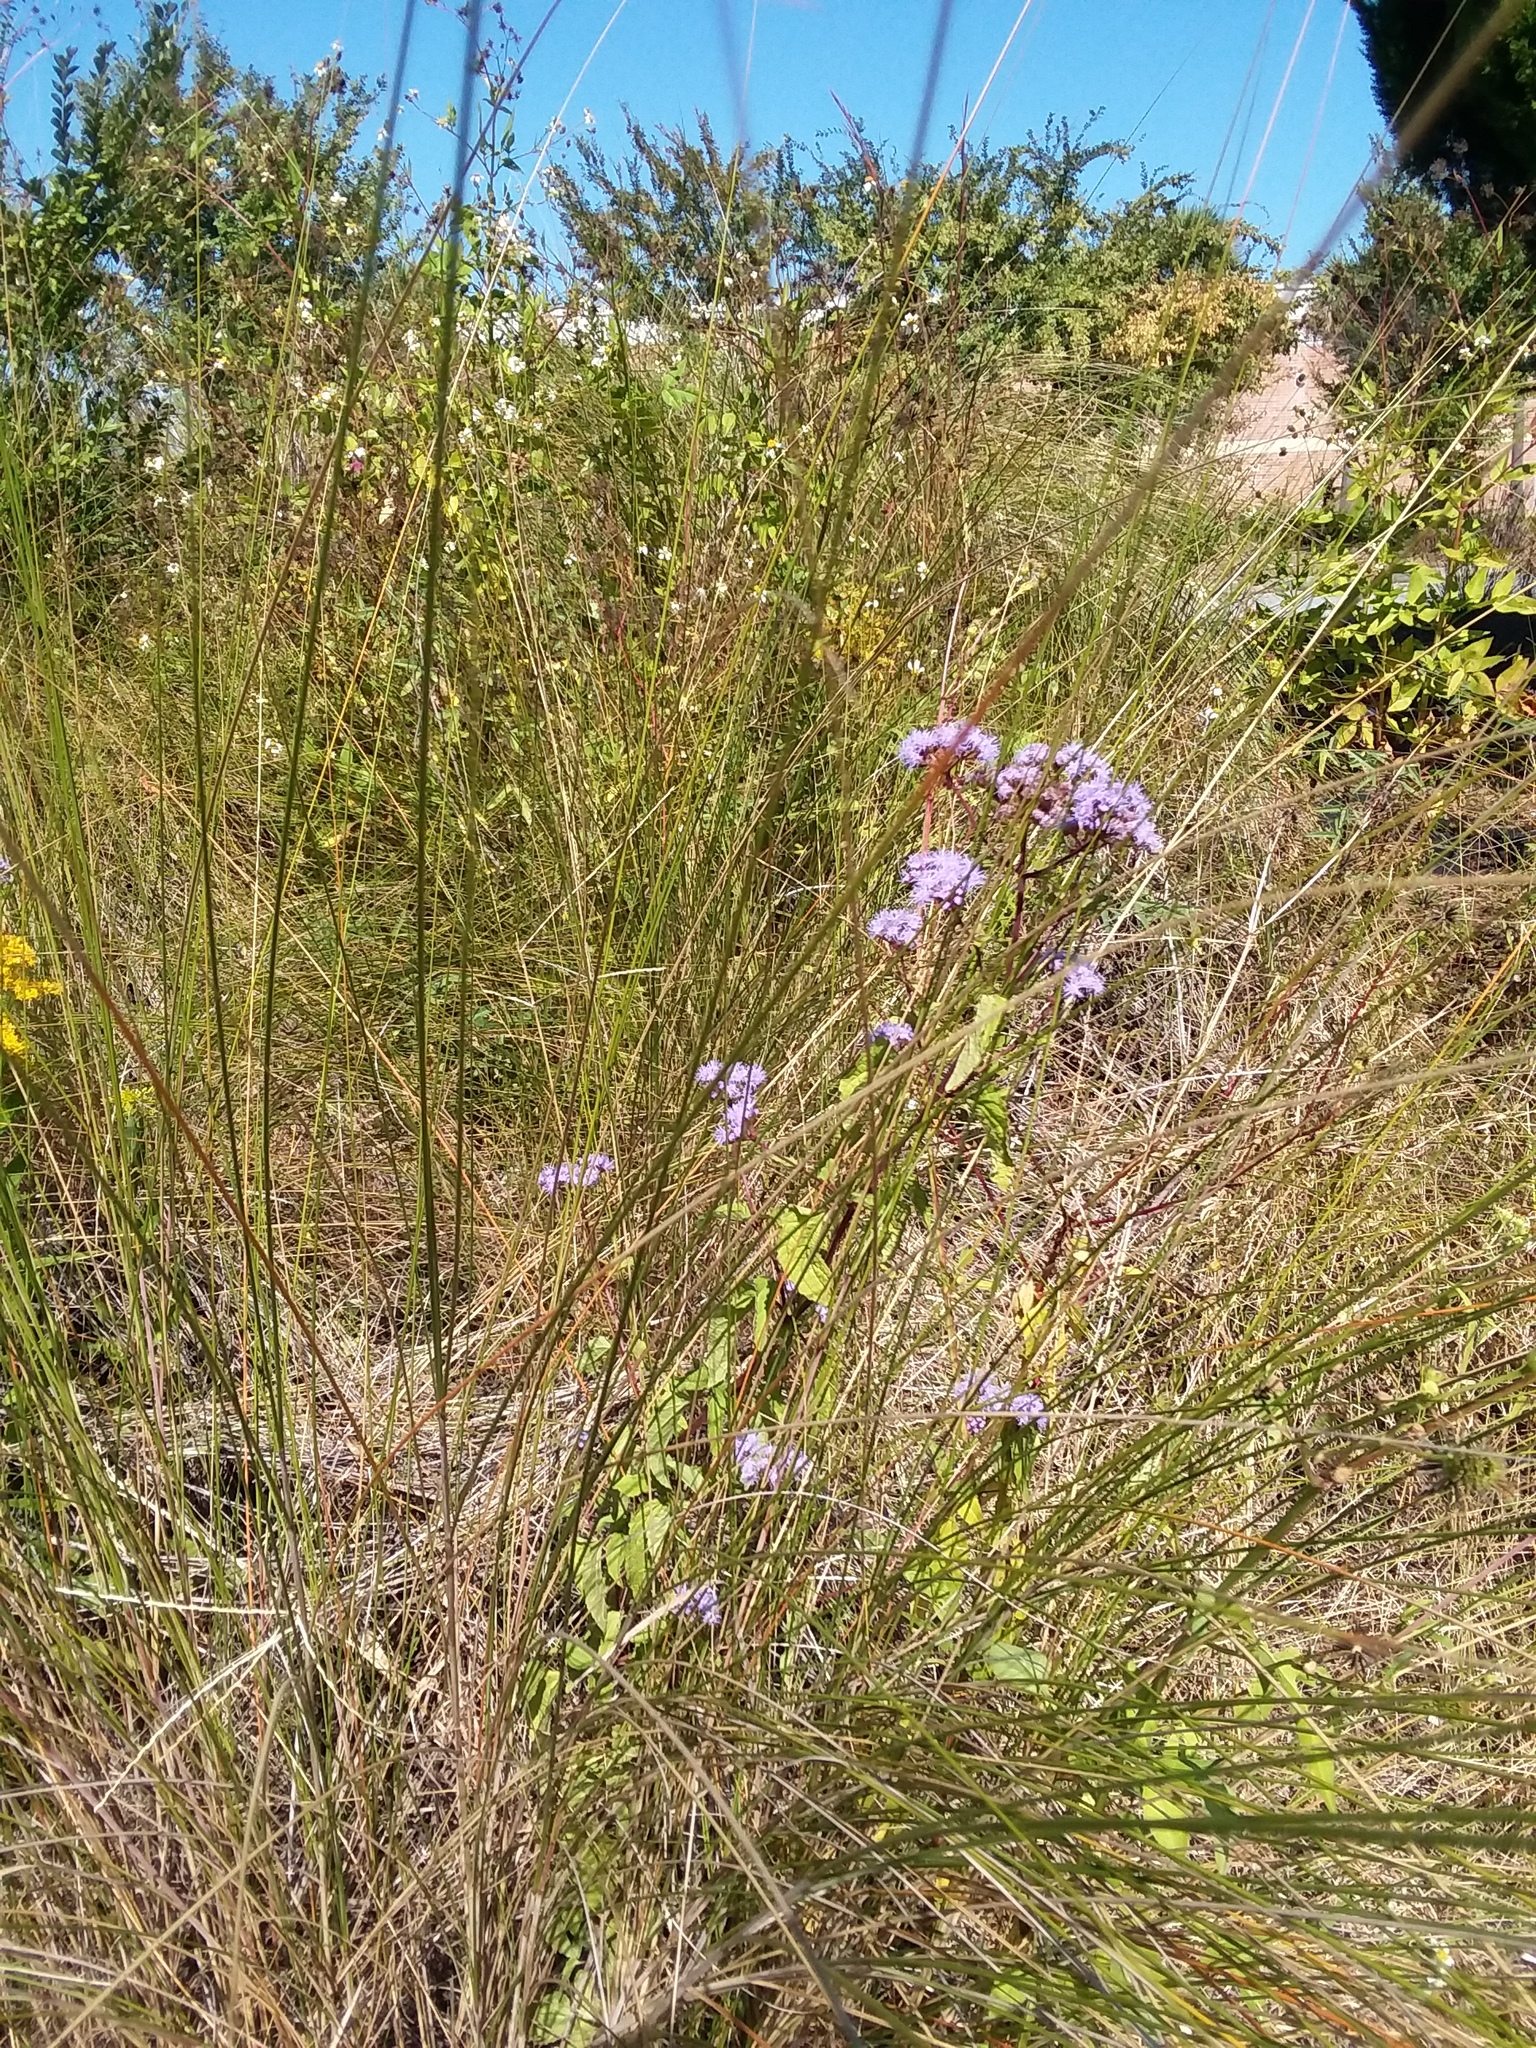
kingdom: Plantae
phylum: Tracheophyta
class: Magnoliopsida
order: Asterales
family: Asteraceae
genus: Conoclinium
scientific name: Conoclinium coelestinum
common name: Blue mistflower
